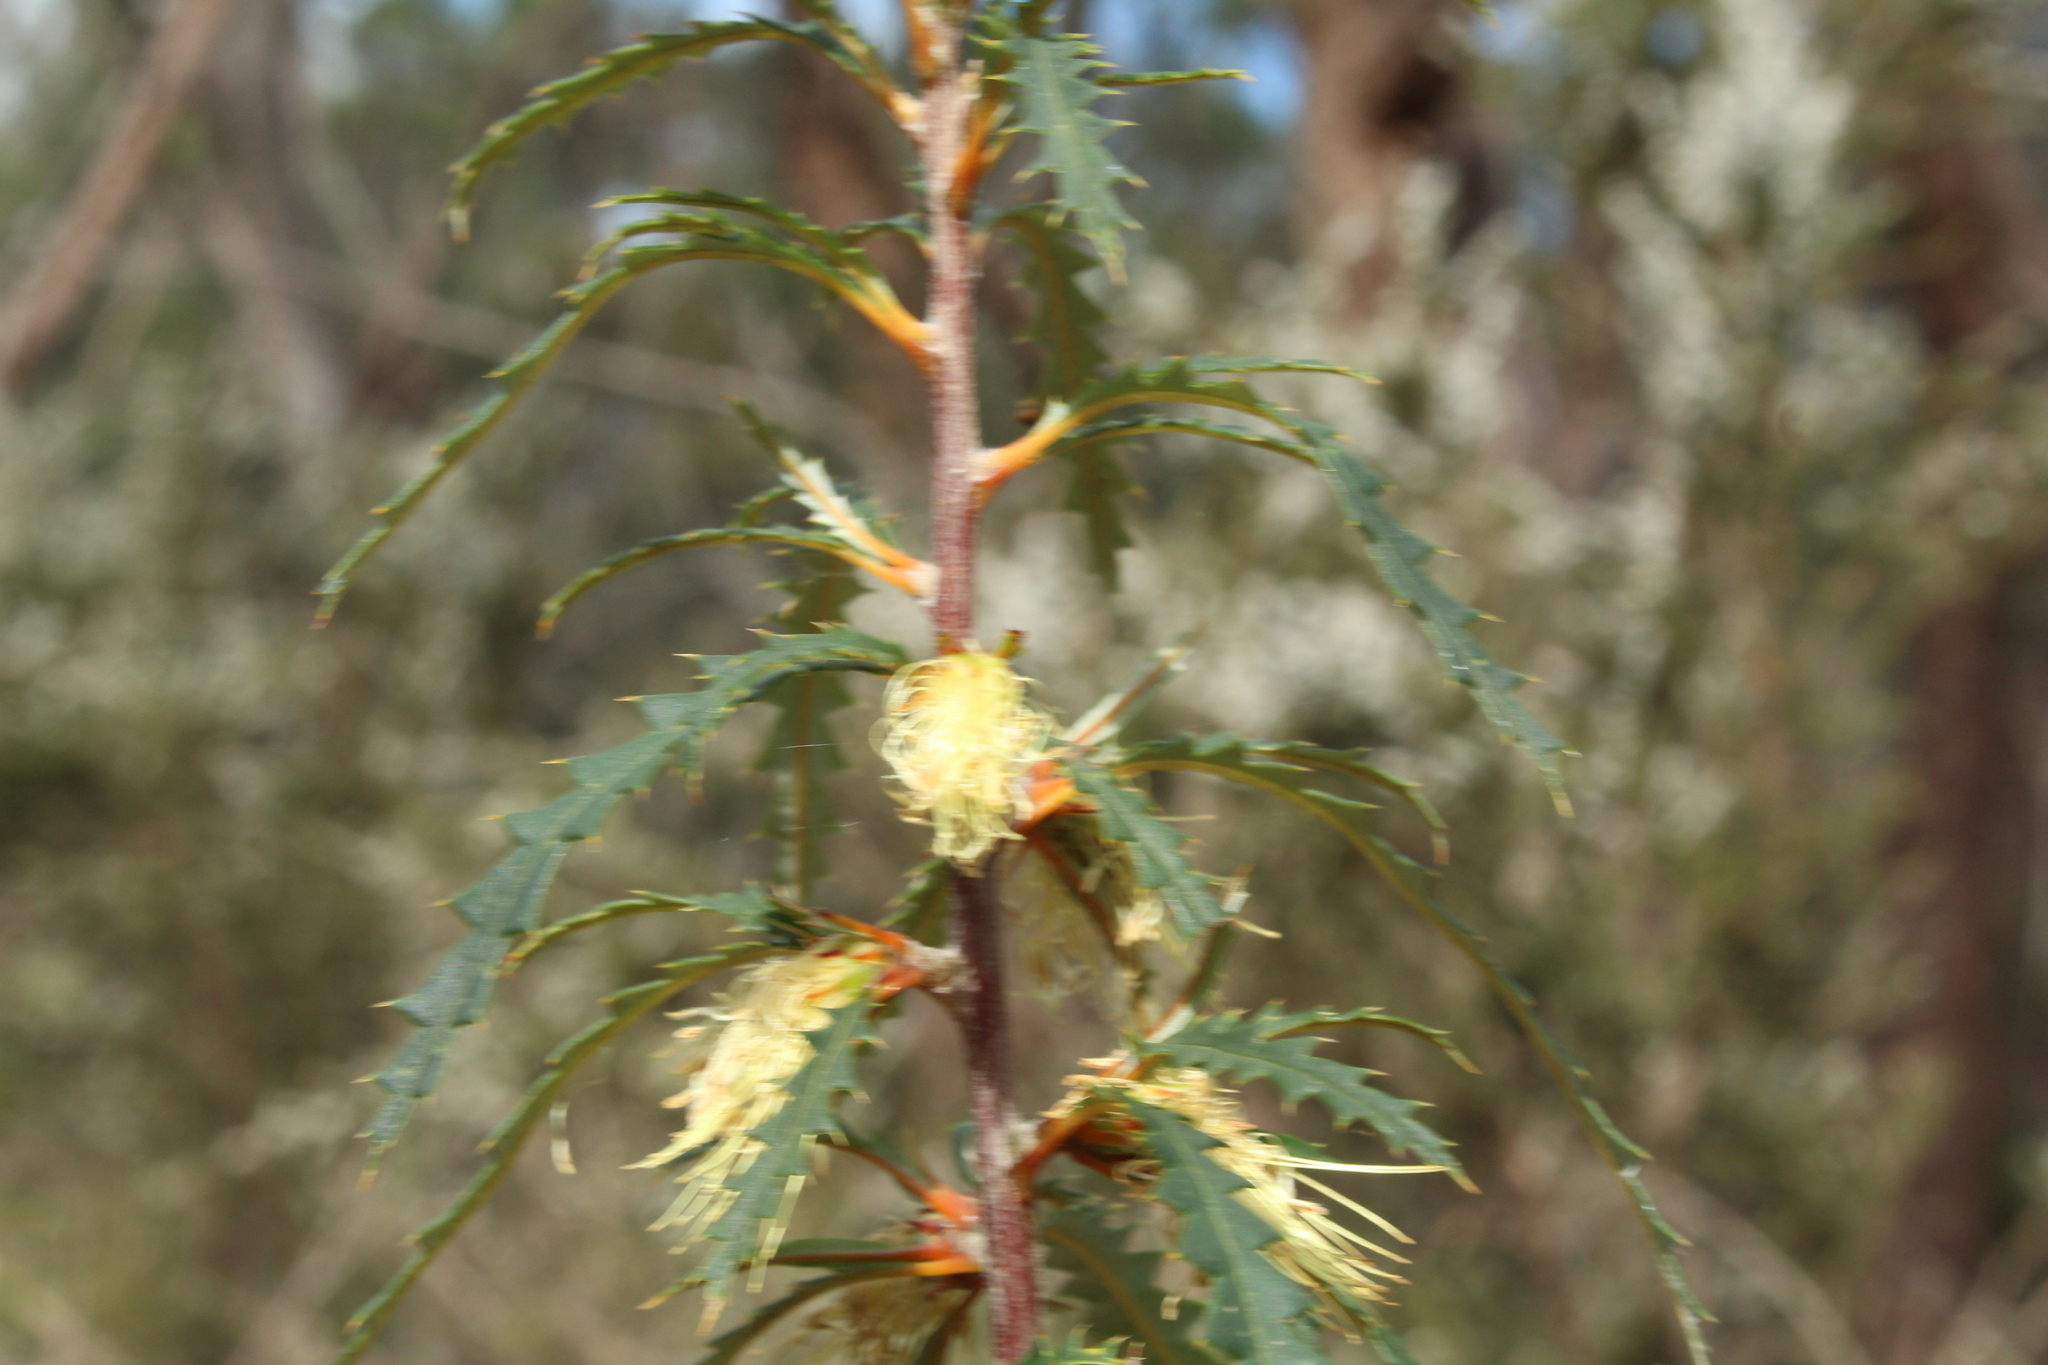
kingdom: Plantae
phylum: Tracheophyta
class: Magnoliopsida
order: Proteales
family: Proteaceae
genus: Banksia
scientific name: Banksia serra
